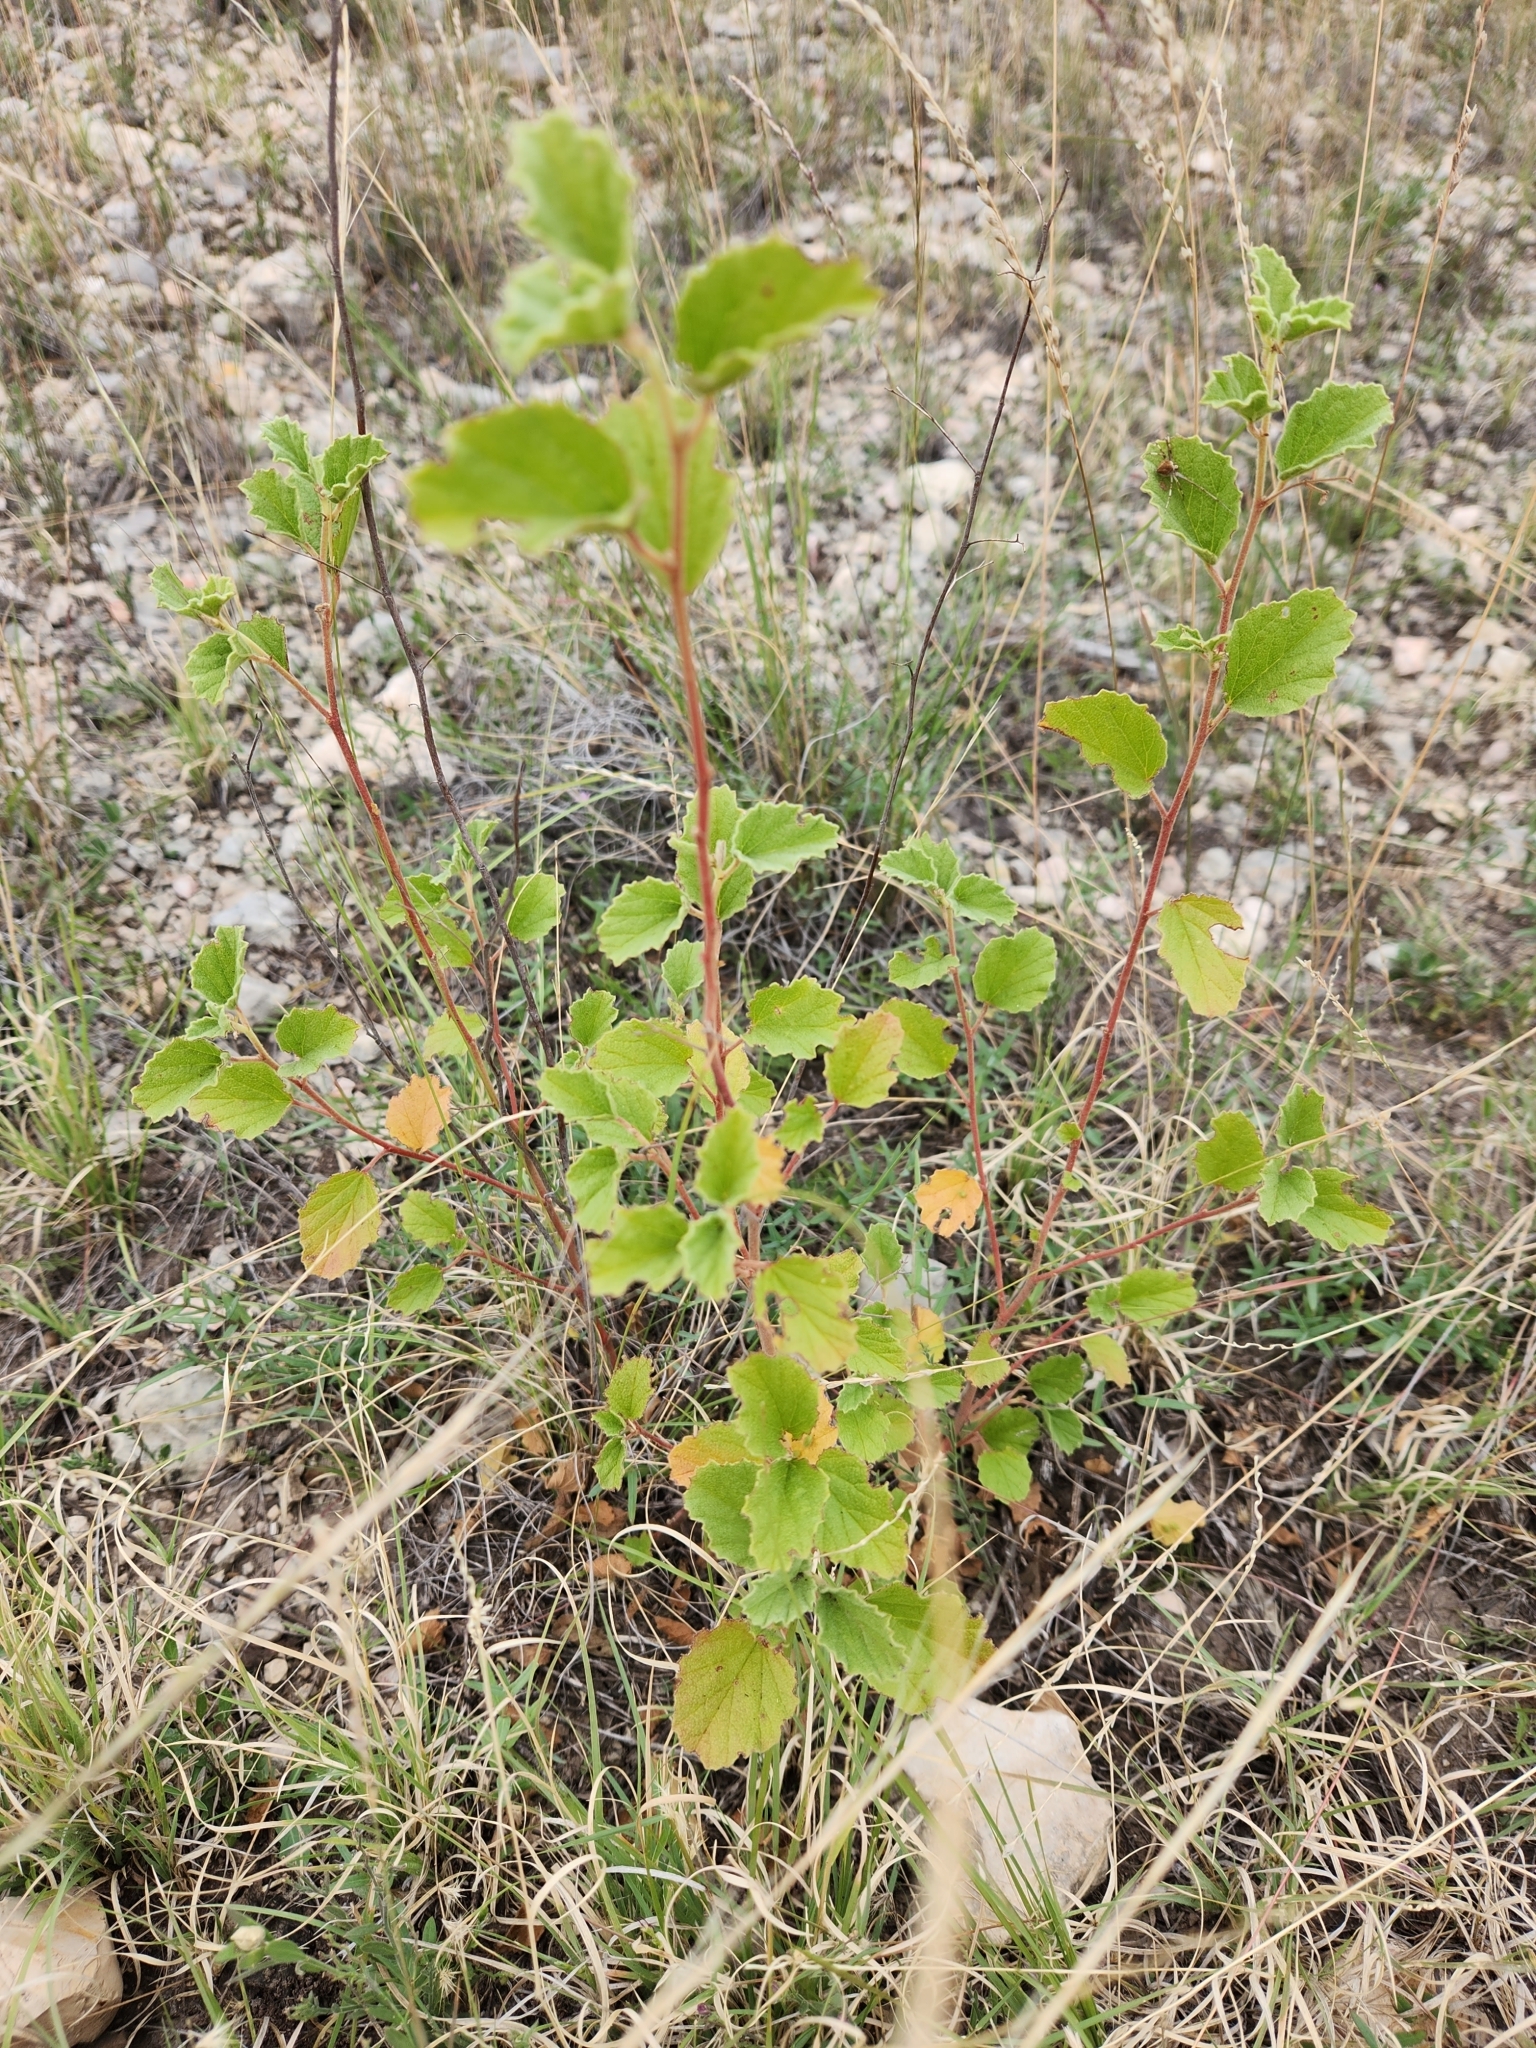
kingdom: Plantae
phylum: Tracheophyta
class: Magnoliopsida
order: Malvales
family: Malvaceae
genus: Hermannia
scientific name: Hermannia texana
